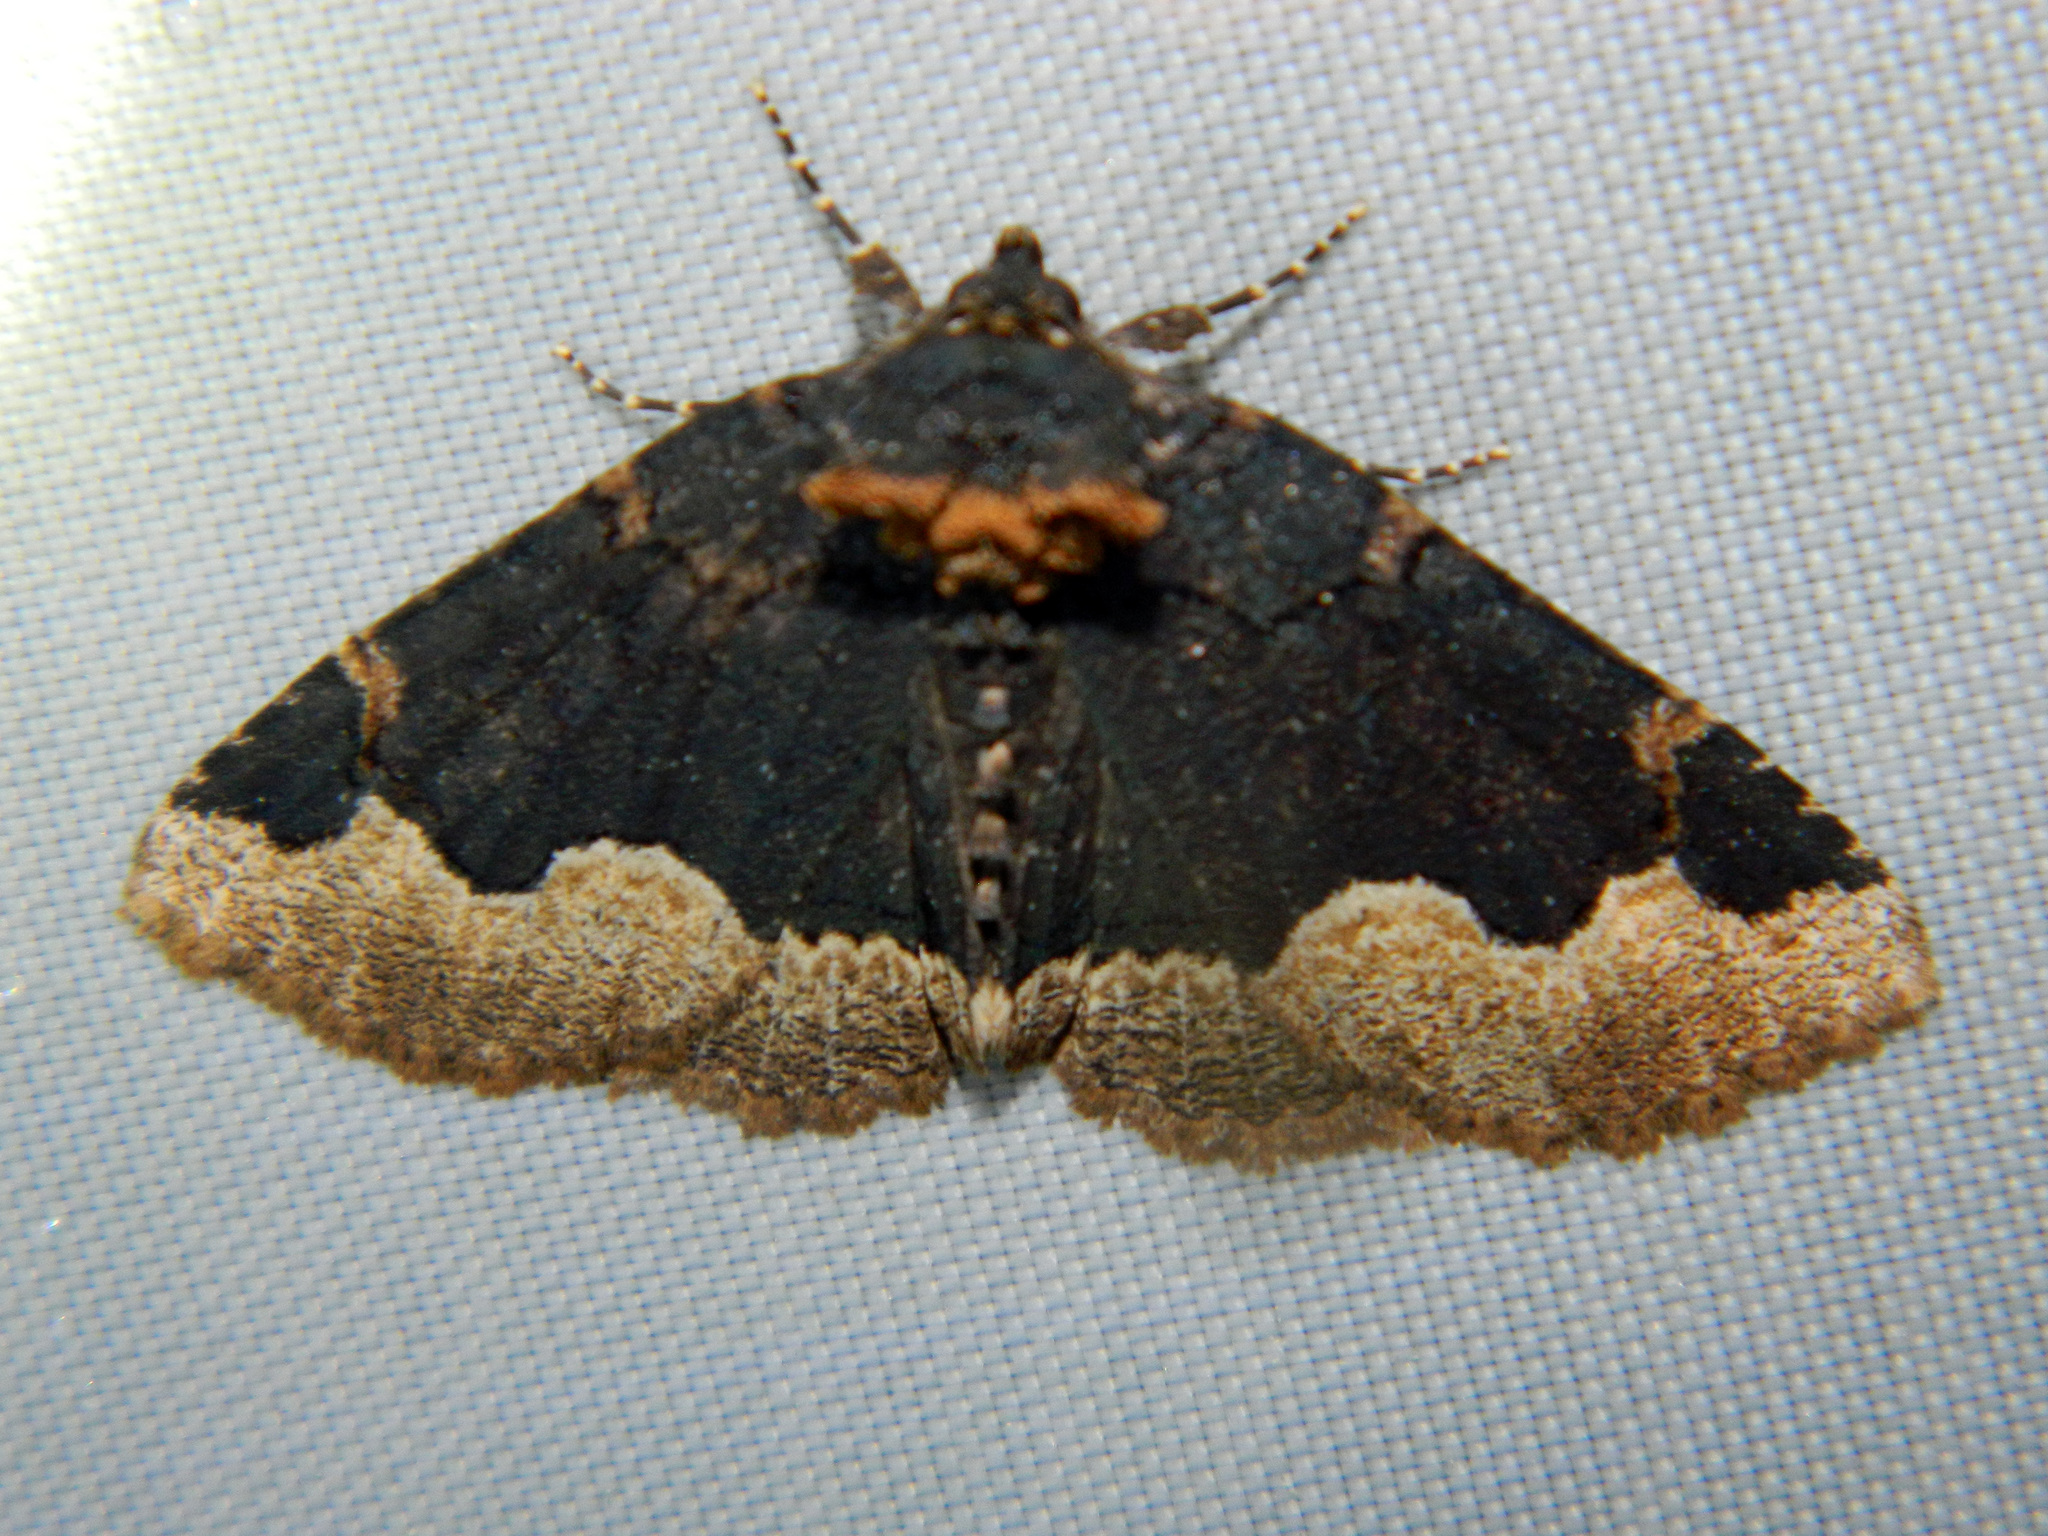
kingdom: Animalia
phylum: Arthropoda
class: Insecta
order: Lepidoptera
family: Erebidae
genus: Zale
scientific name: Zale horrida
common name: Horrid zale moth
